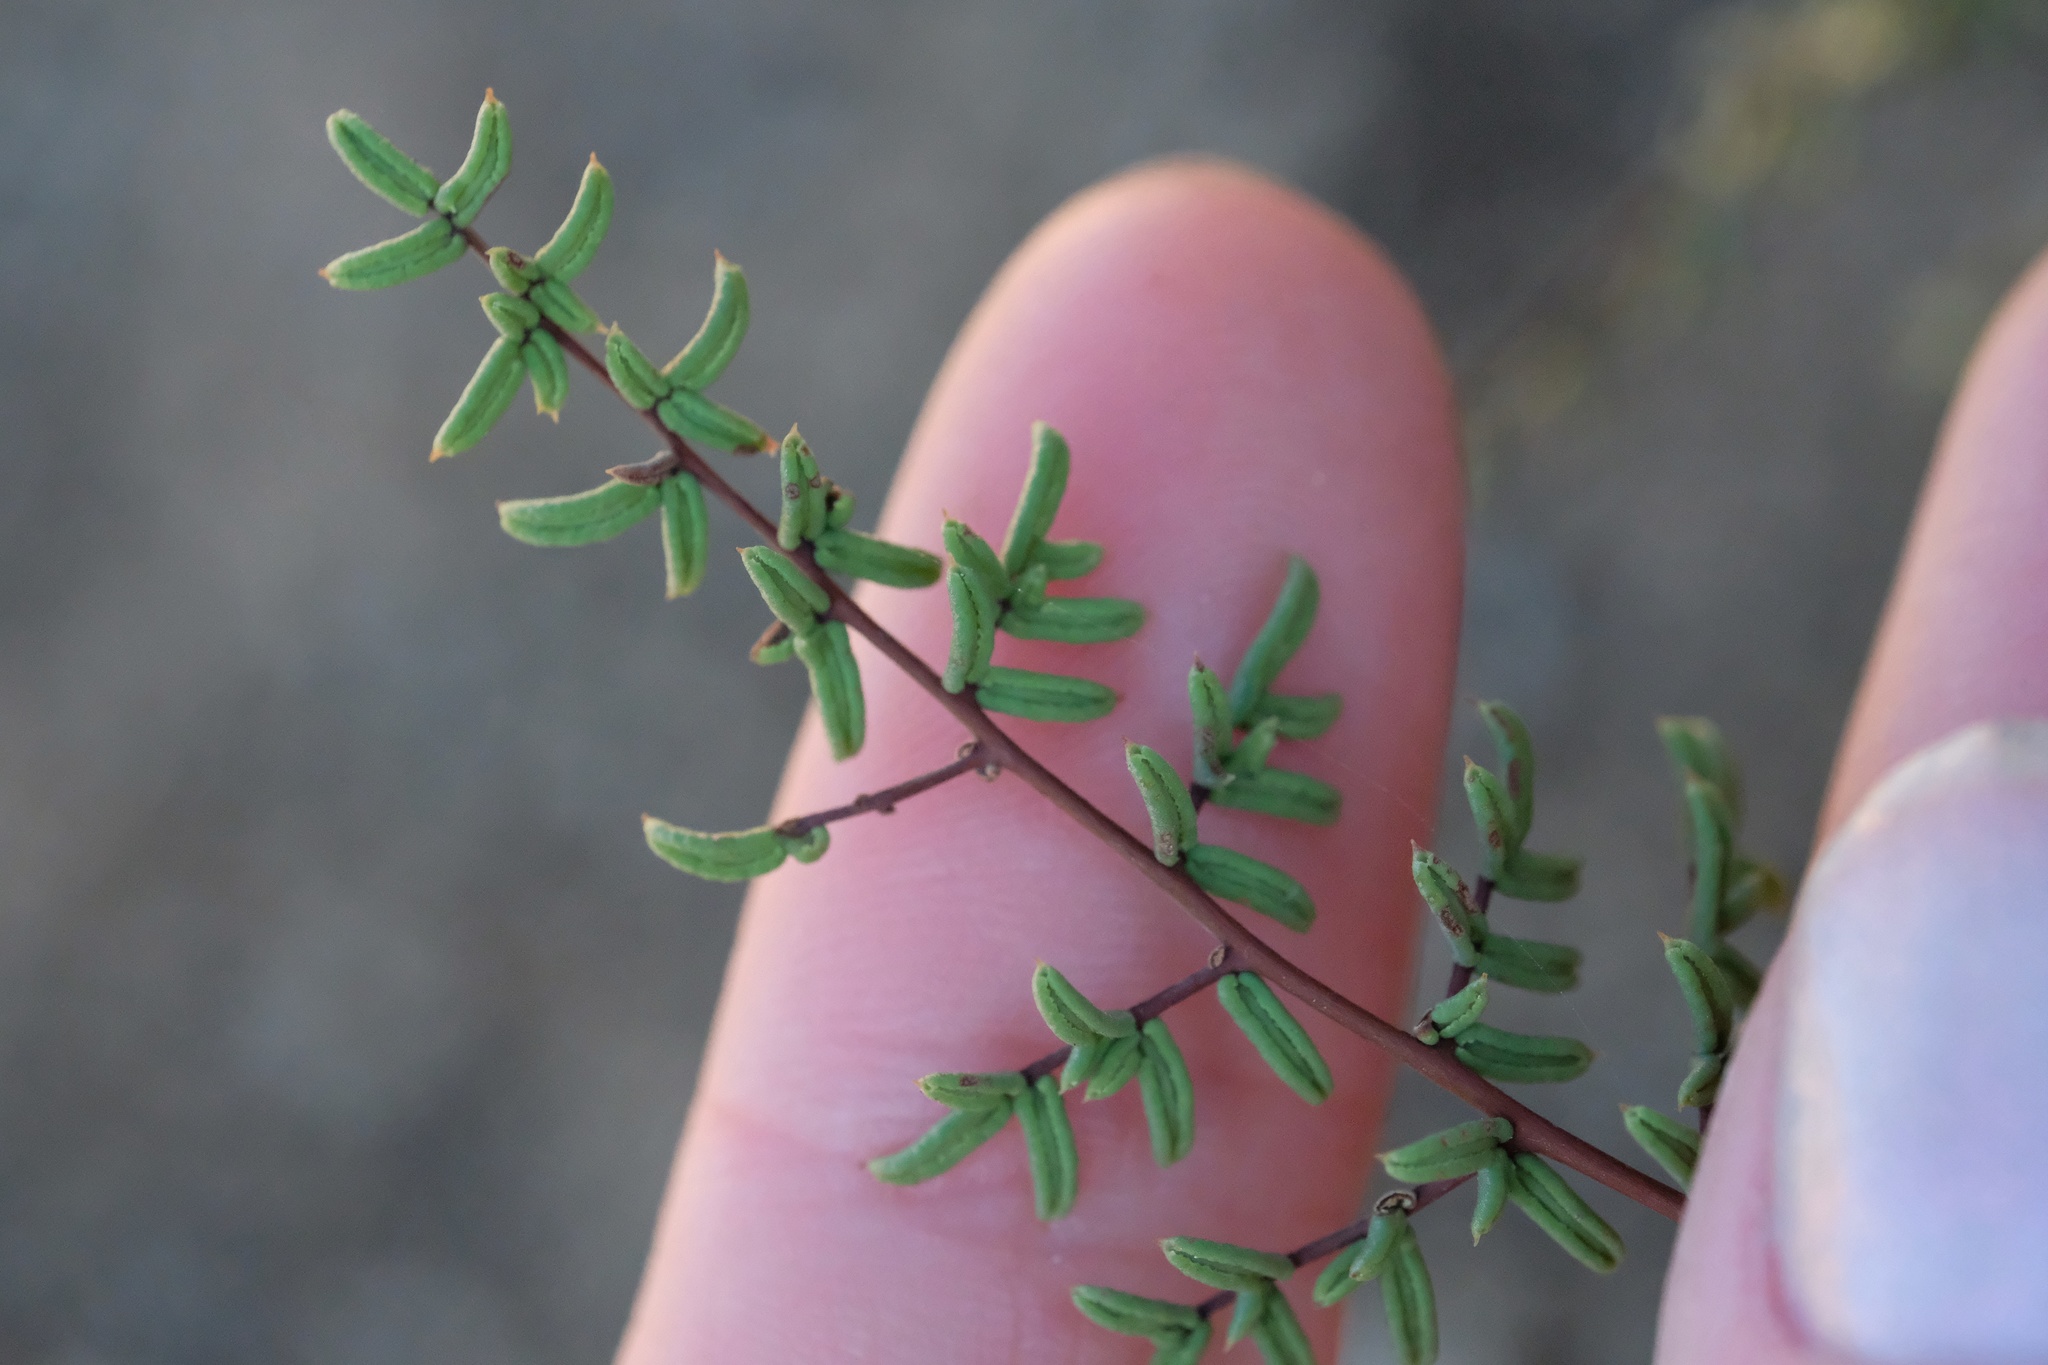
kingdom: Plantae
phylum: Tracheophyta
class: Polypodiopsida
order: Polypodiales
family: Pteridaceae
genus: Pellaea
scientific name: Pellaea mucronata
